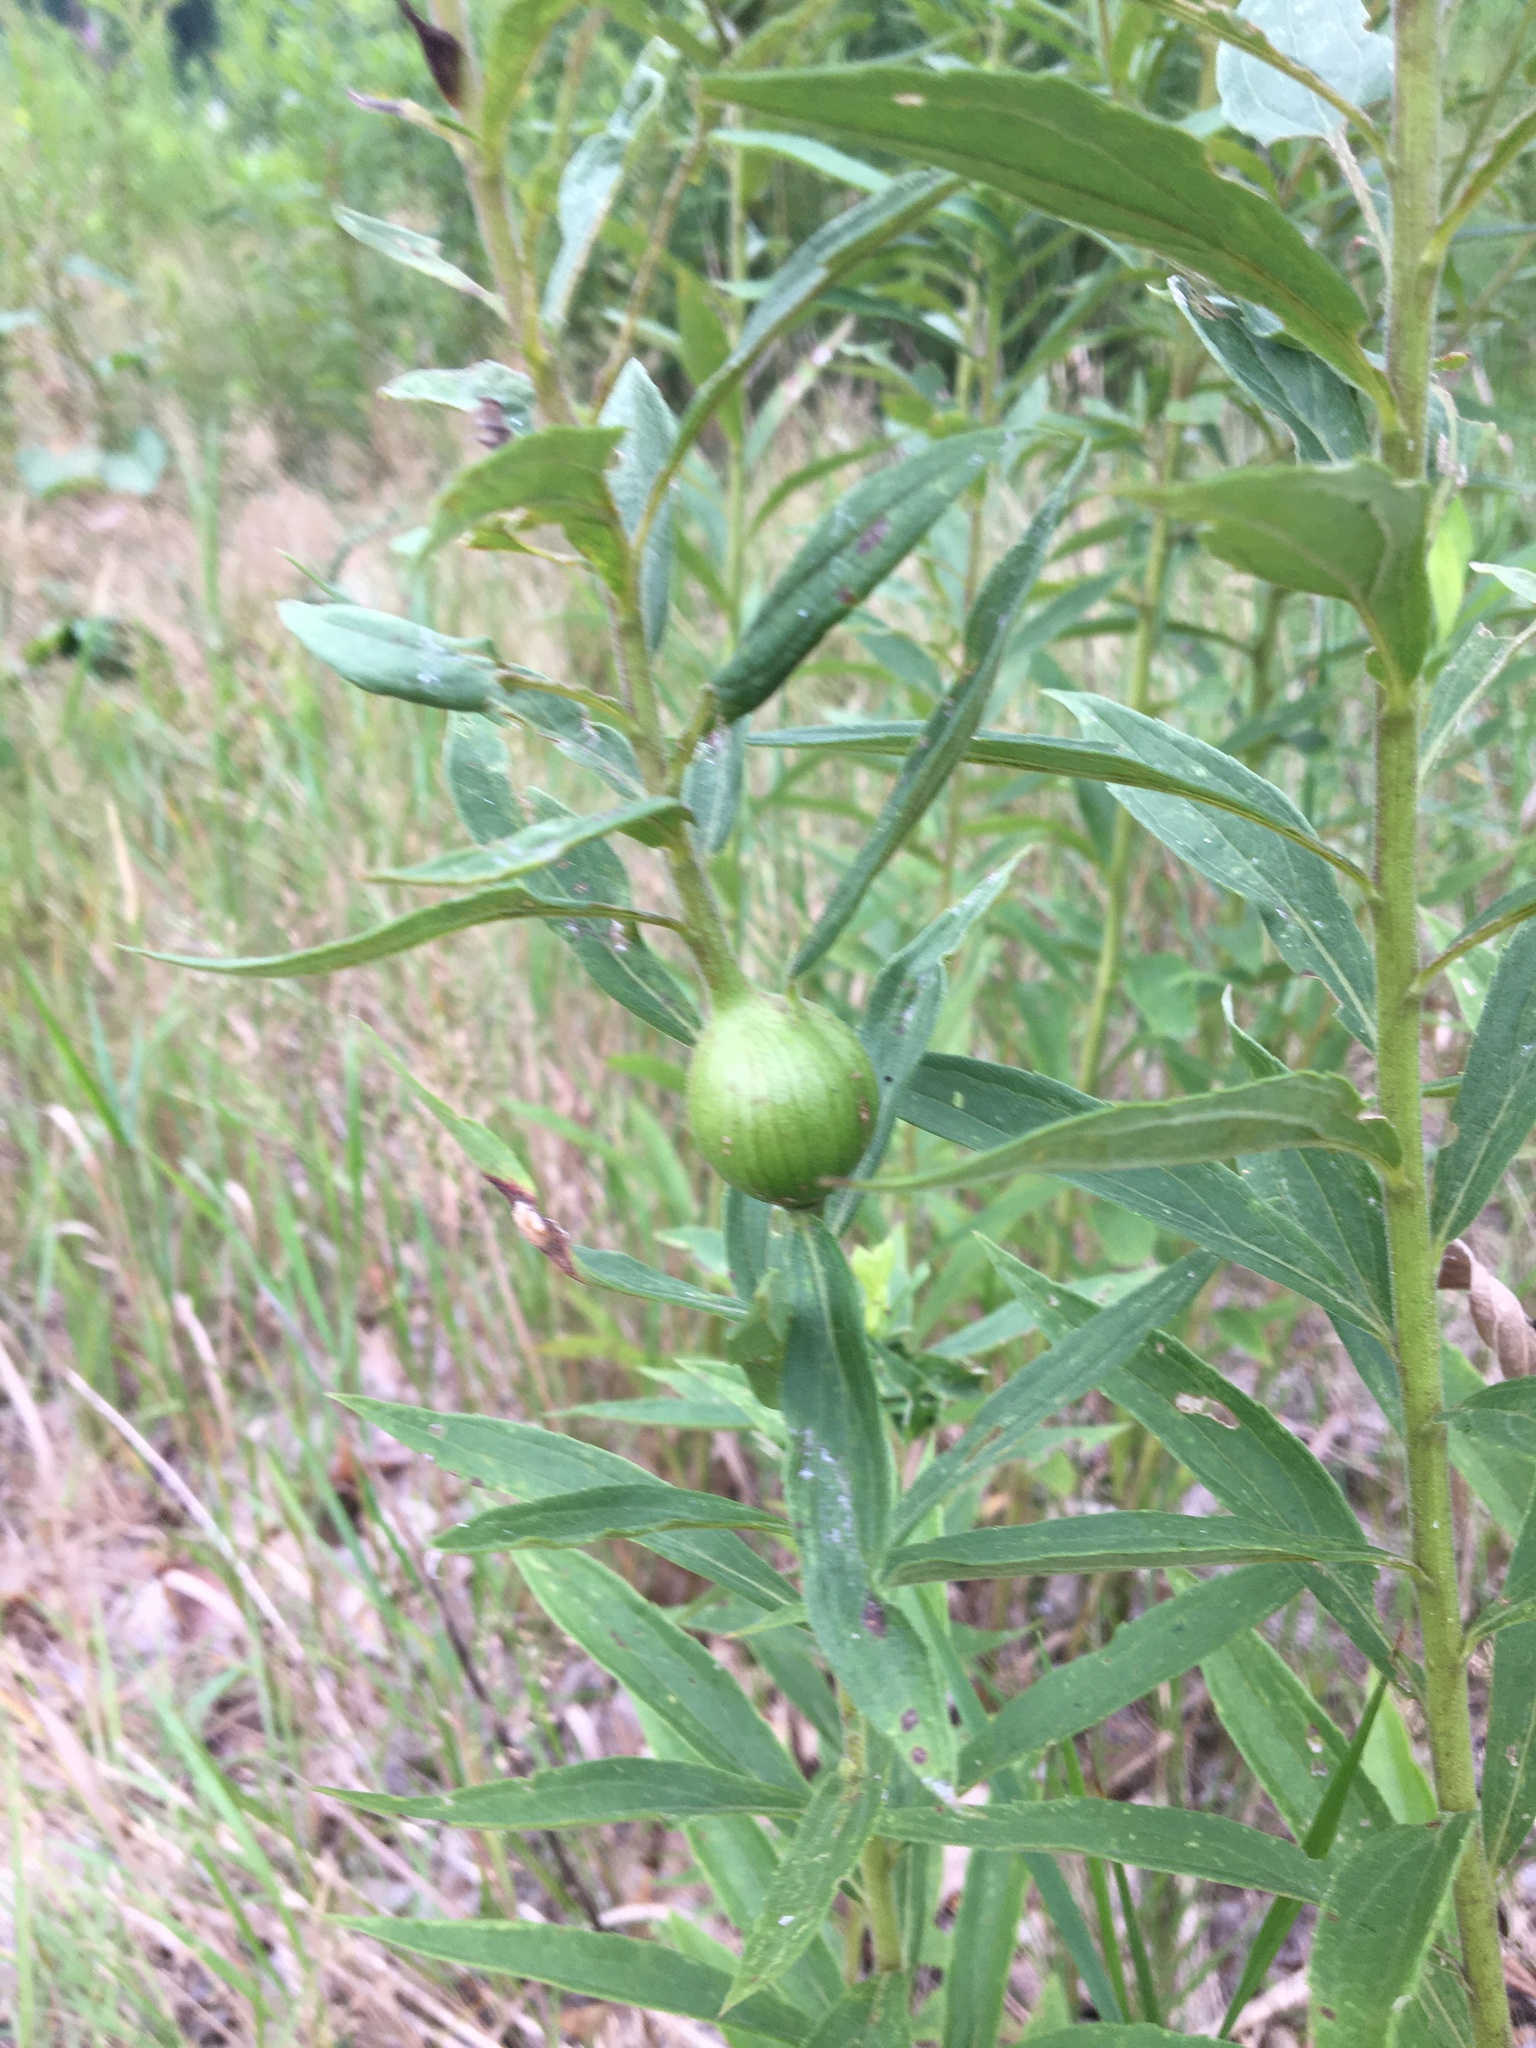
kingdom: Animalia
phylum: Arthropoda
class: Insecta
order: Diptera
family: Tephritidae
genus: Eurosta
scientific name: Eurosta solidaginis
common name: Goldenrod gall fly
